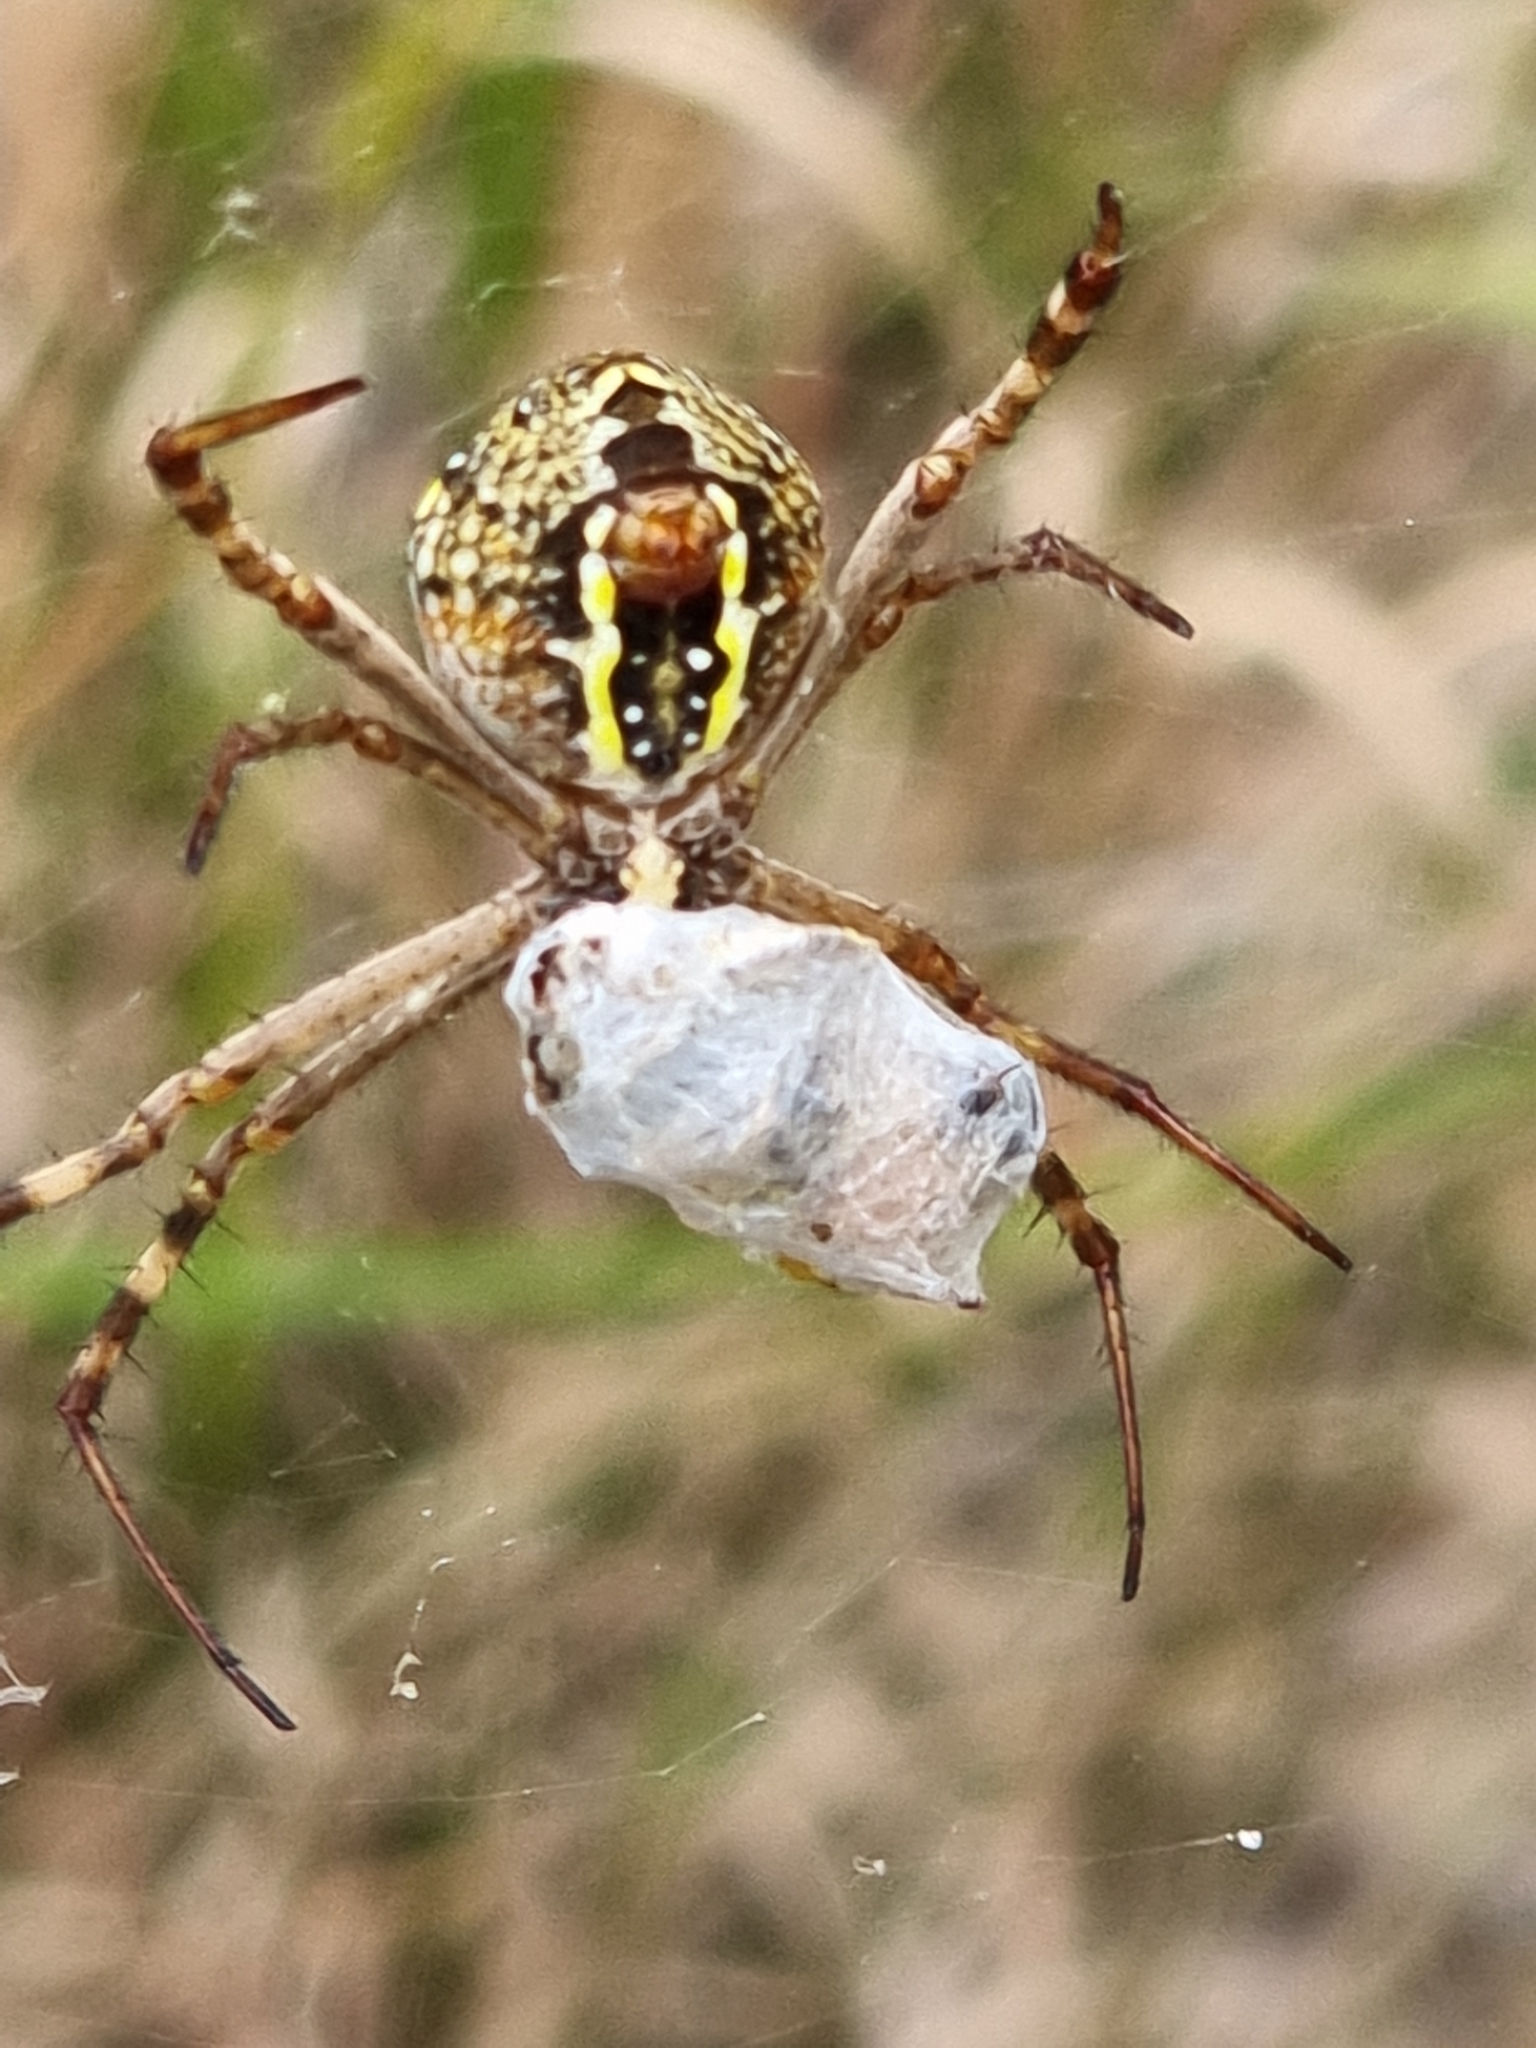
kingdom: Animalia
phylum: Arthropoda
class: Arachnida
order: Araneae
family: Araneidae
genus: Argiope
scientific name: Argiope keyserlingi
